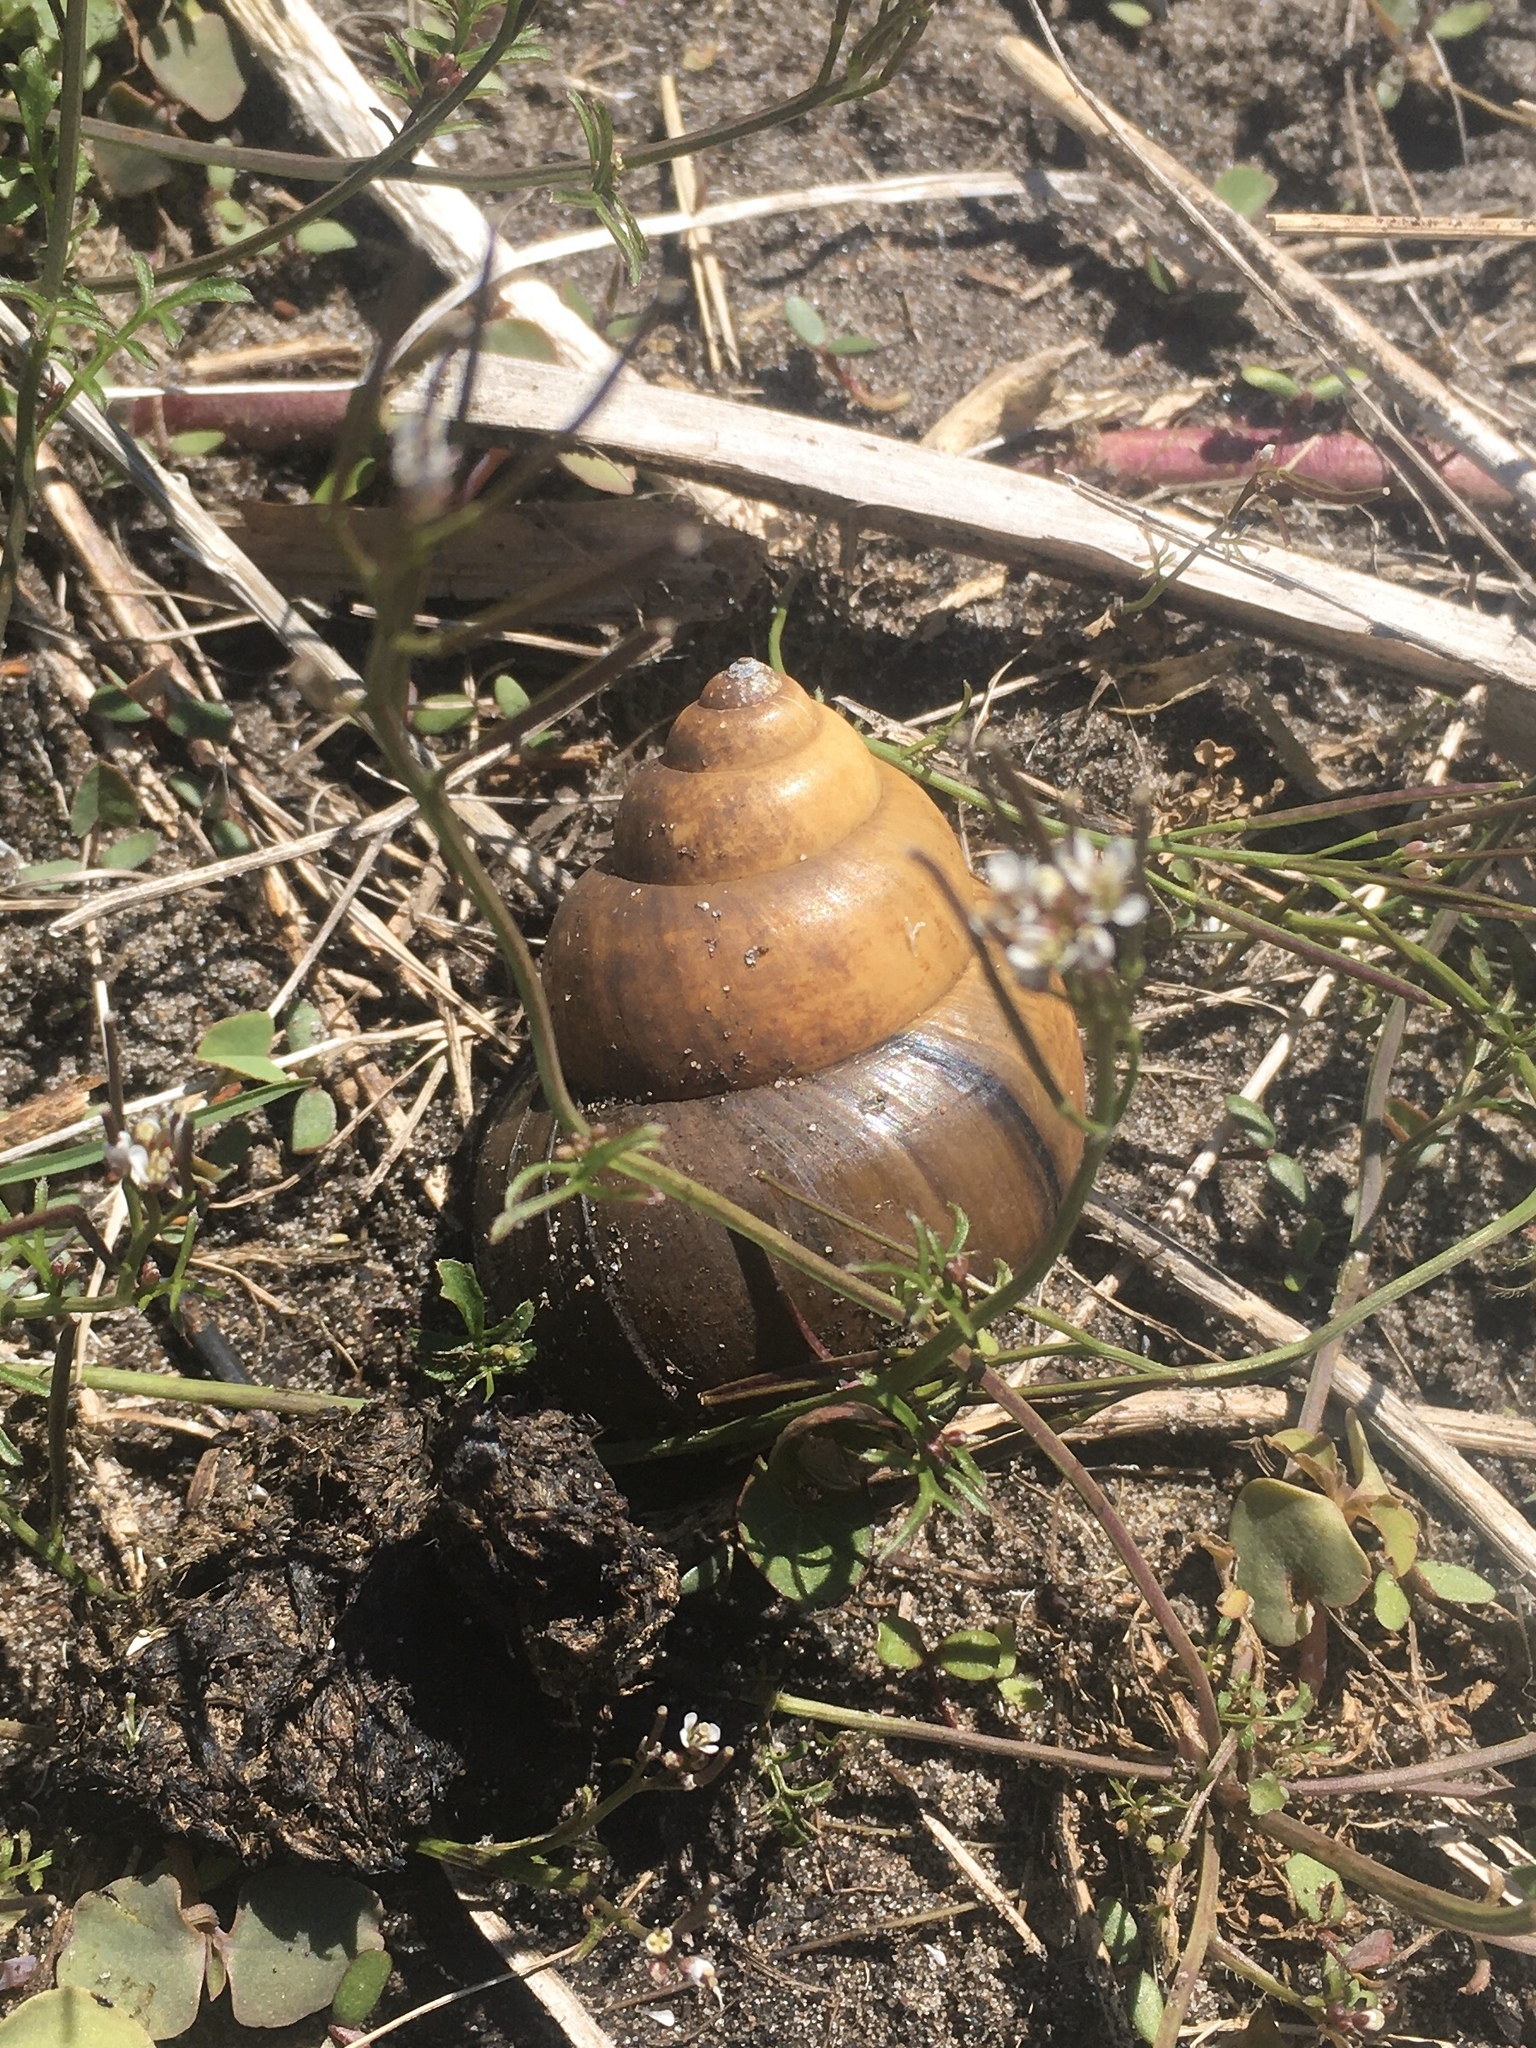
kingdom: Animalia
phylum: Mollusca
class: Gastropoda
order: Architaenioglossa
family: Viviparidae
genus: Cipangopaludina
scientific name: Cipangopaludina chinensis
